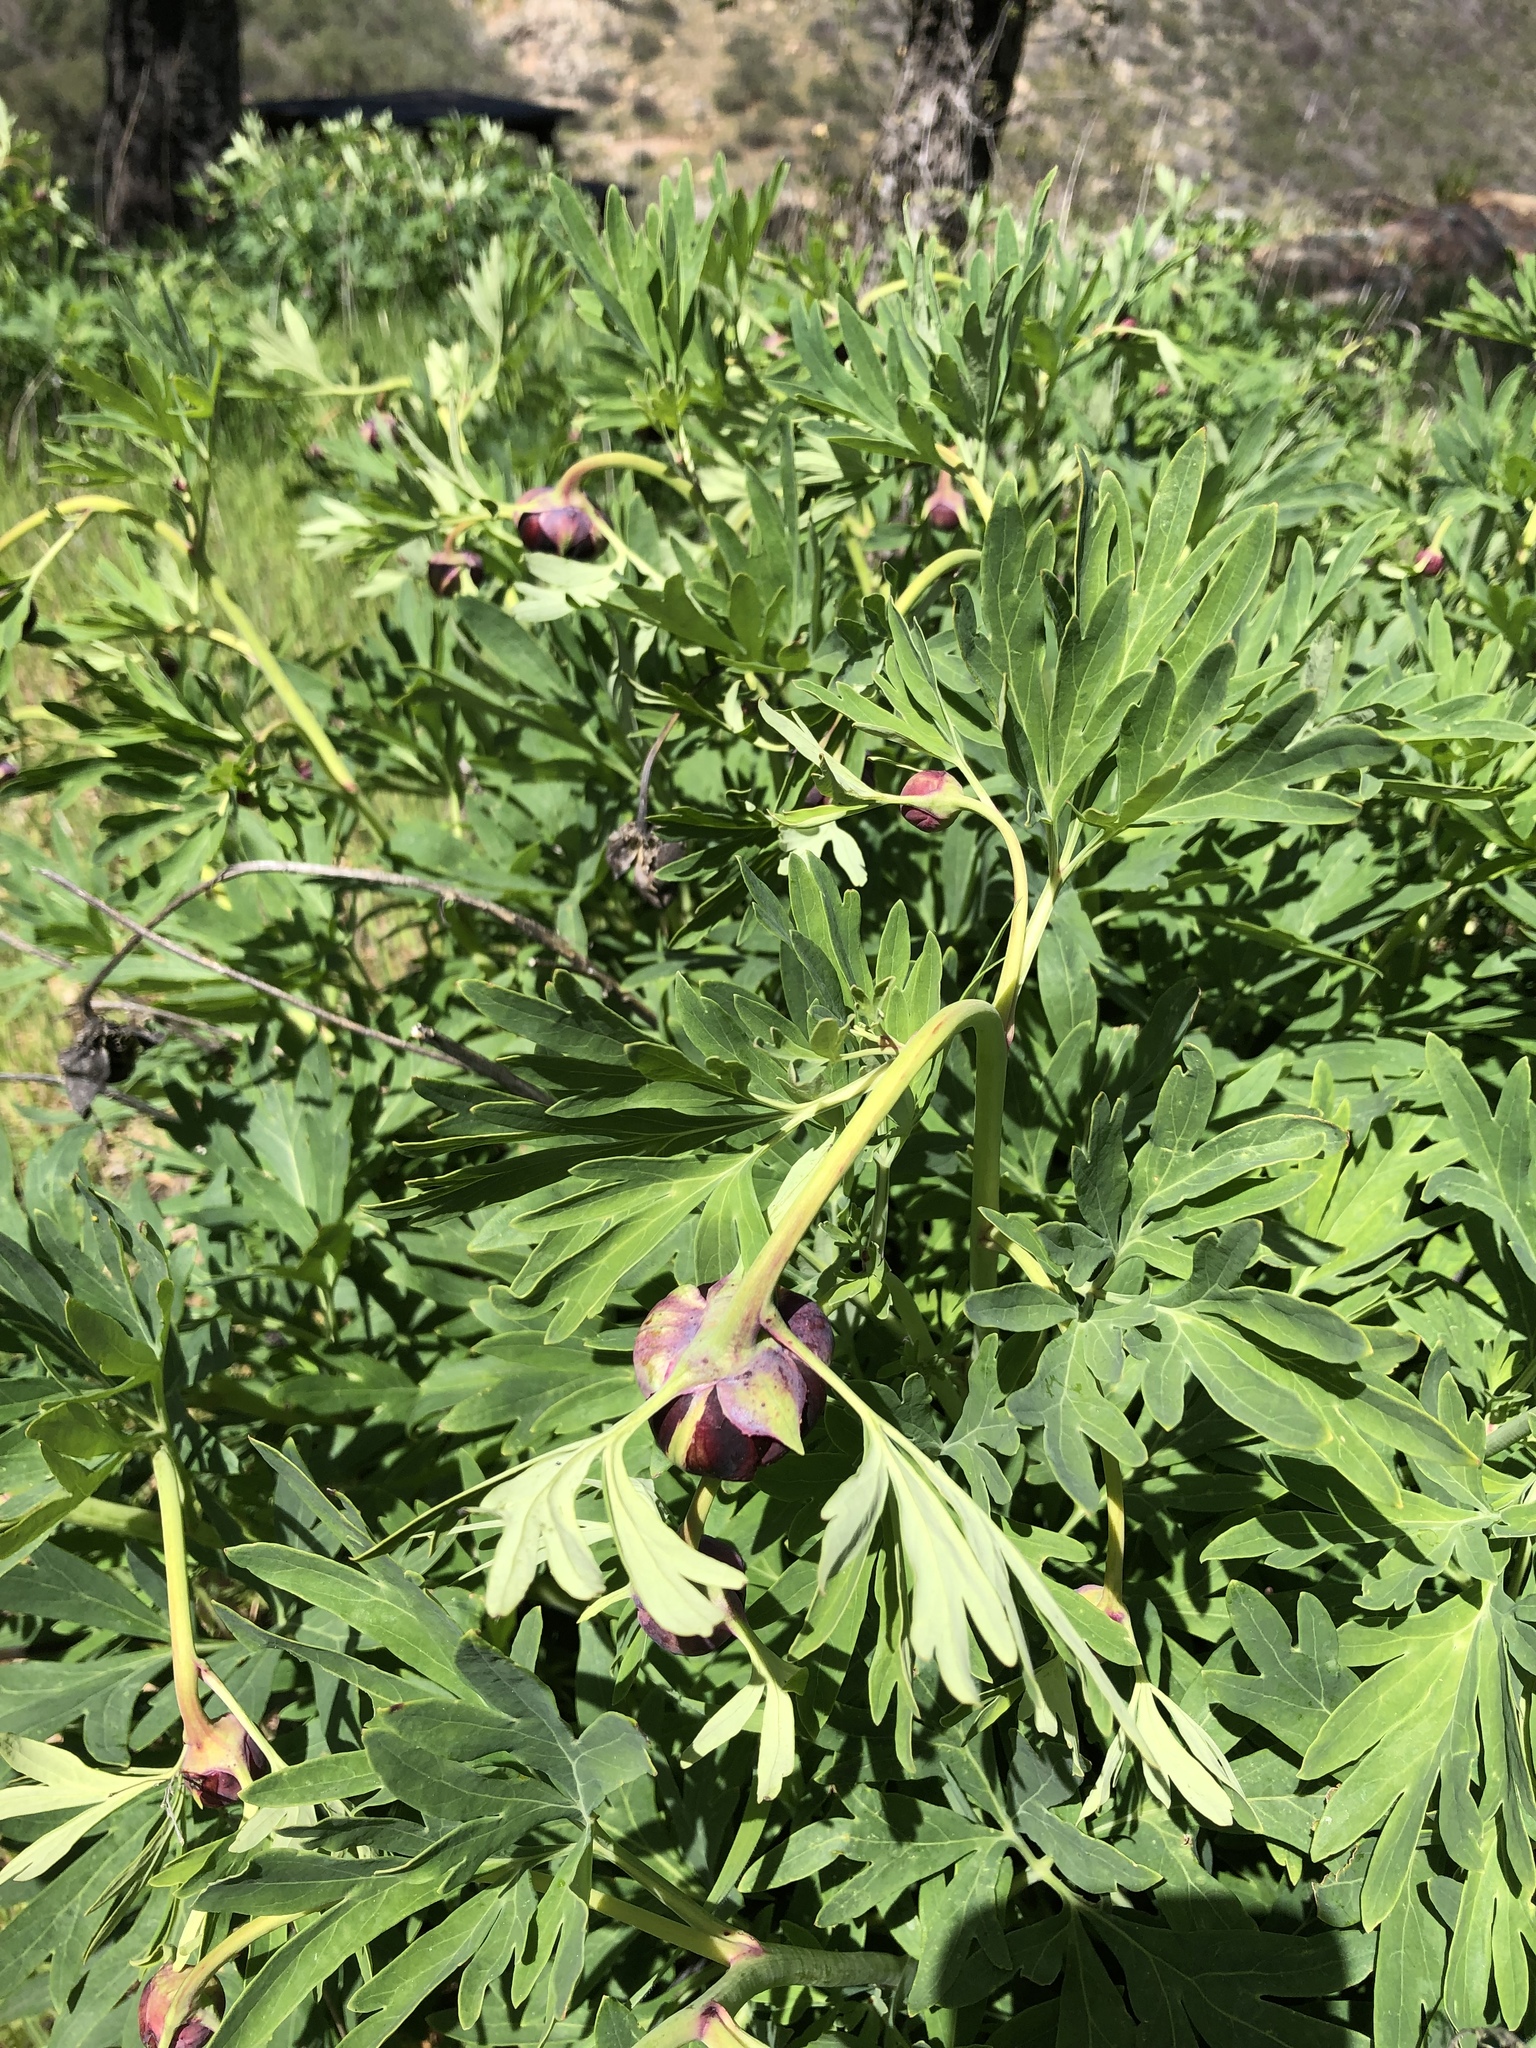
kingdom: Plantae
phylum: Tracheophyta
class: Magnoliopsida
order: Saxifragales
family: Paeoniaceae
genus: Paeonia
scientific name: Paeonia californica
